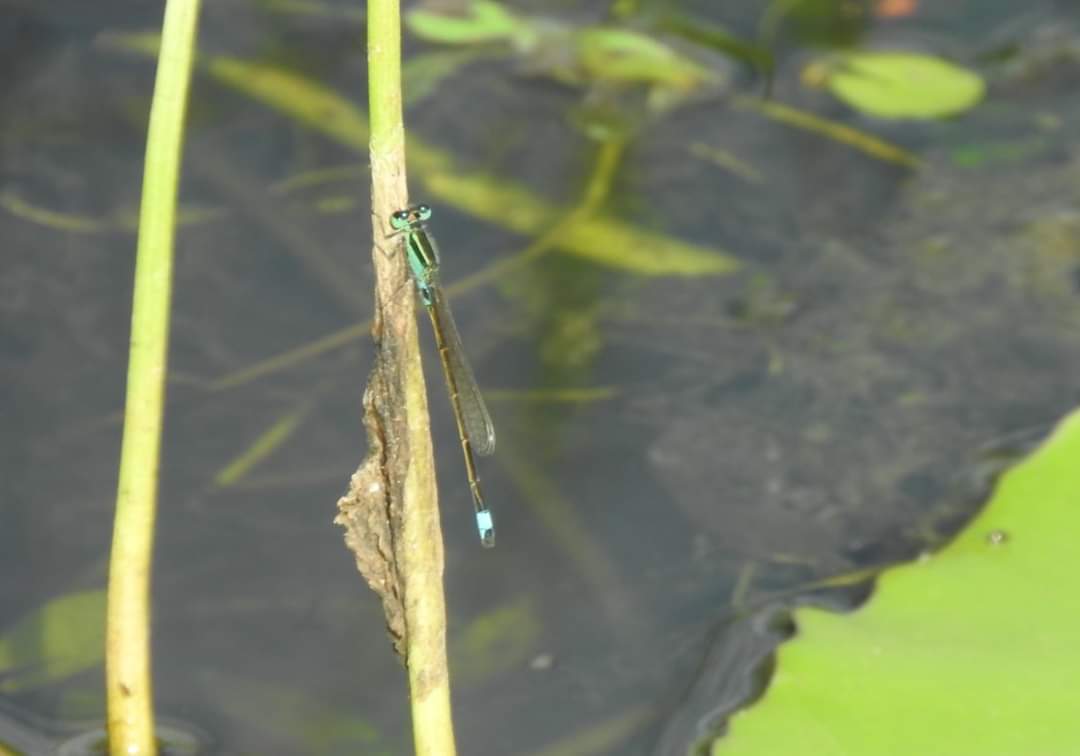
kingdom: Animalia
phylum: Arthropoda
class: Insecta
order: Odonata
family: Coenagrionidae
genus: Ischnura
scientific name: Ischnura senegalensis
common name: Tropical bluetail
